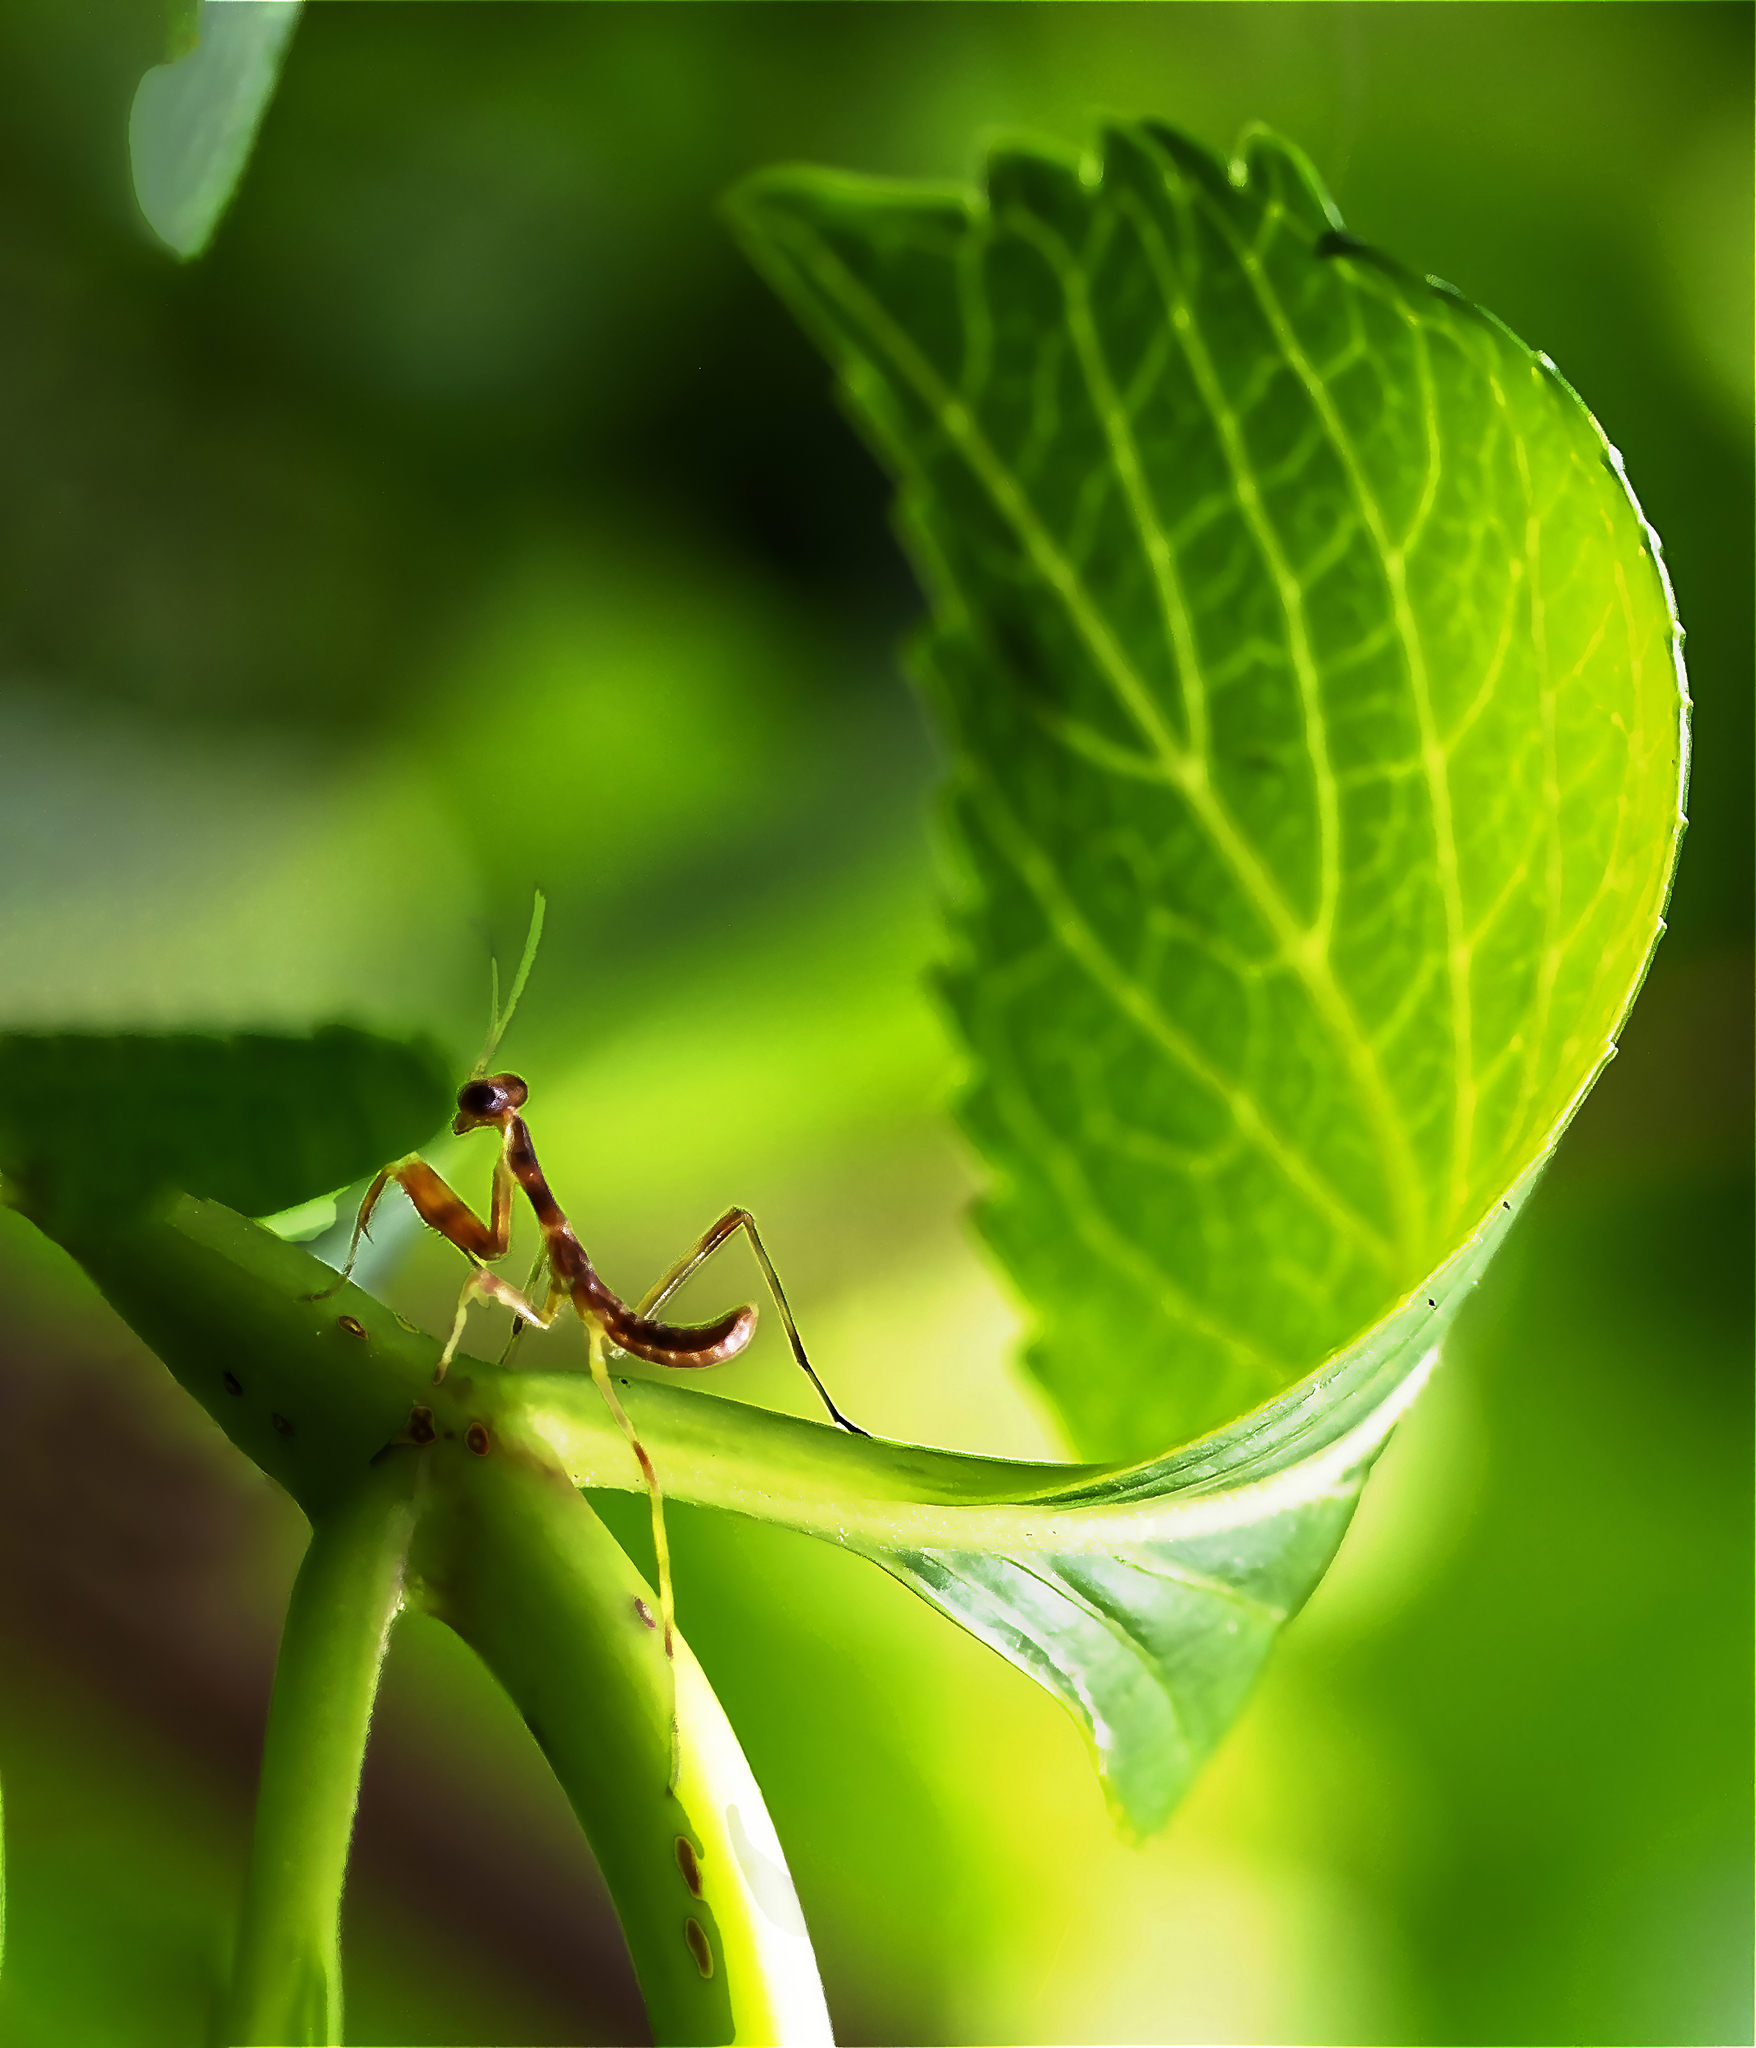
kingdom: Animalia
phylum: Arthropoda
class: Insecta
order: Mantodea
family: Mantidae
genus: Stagmatoptera
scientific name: Stagmatoptera hyaloptera
